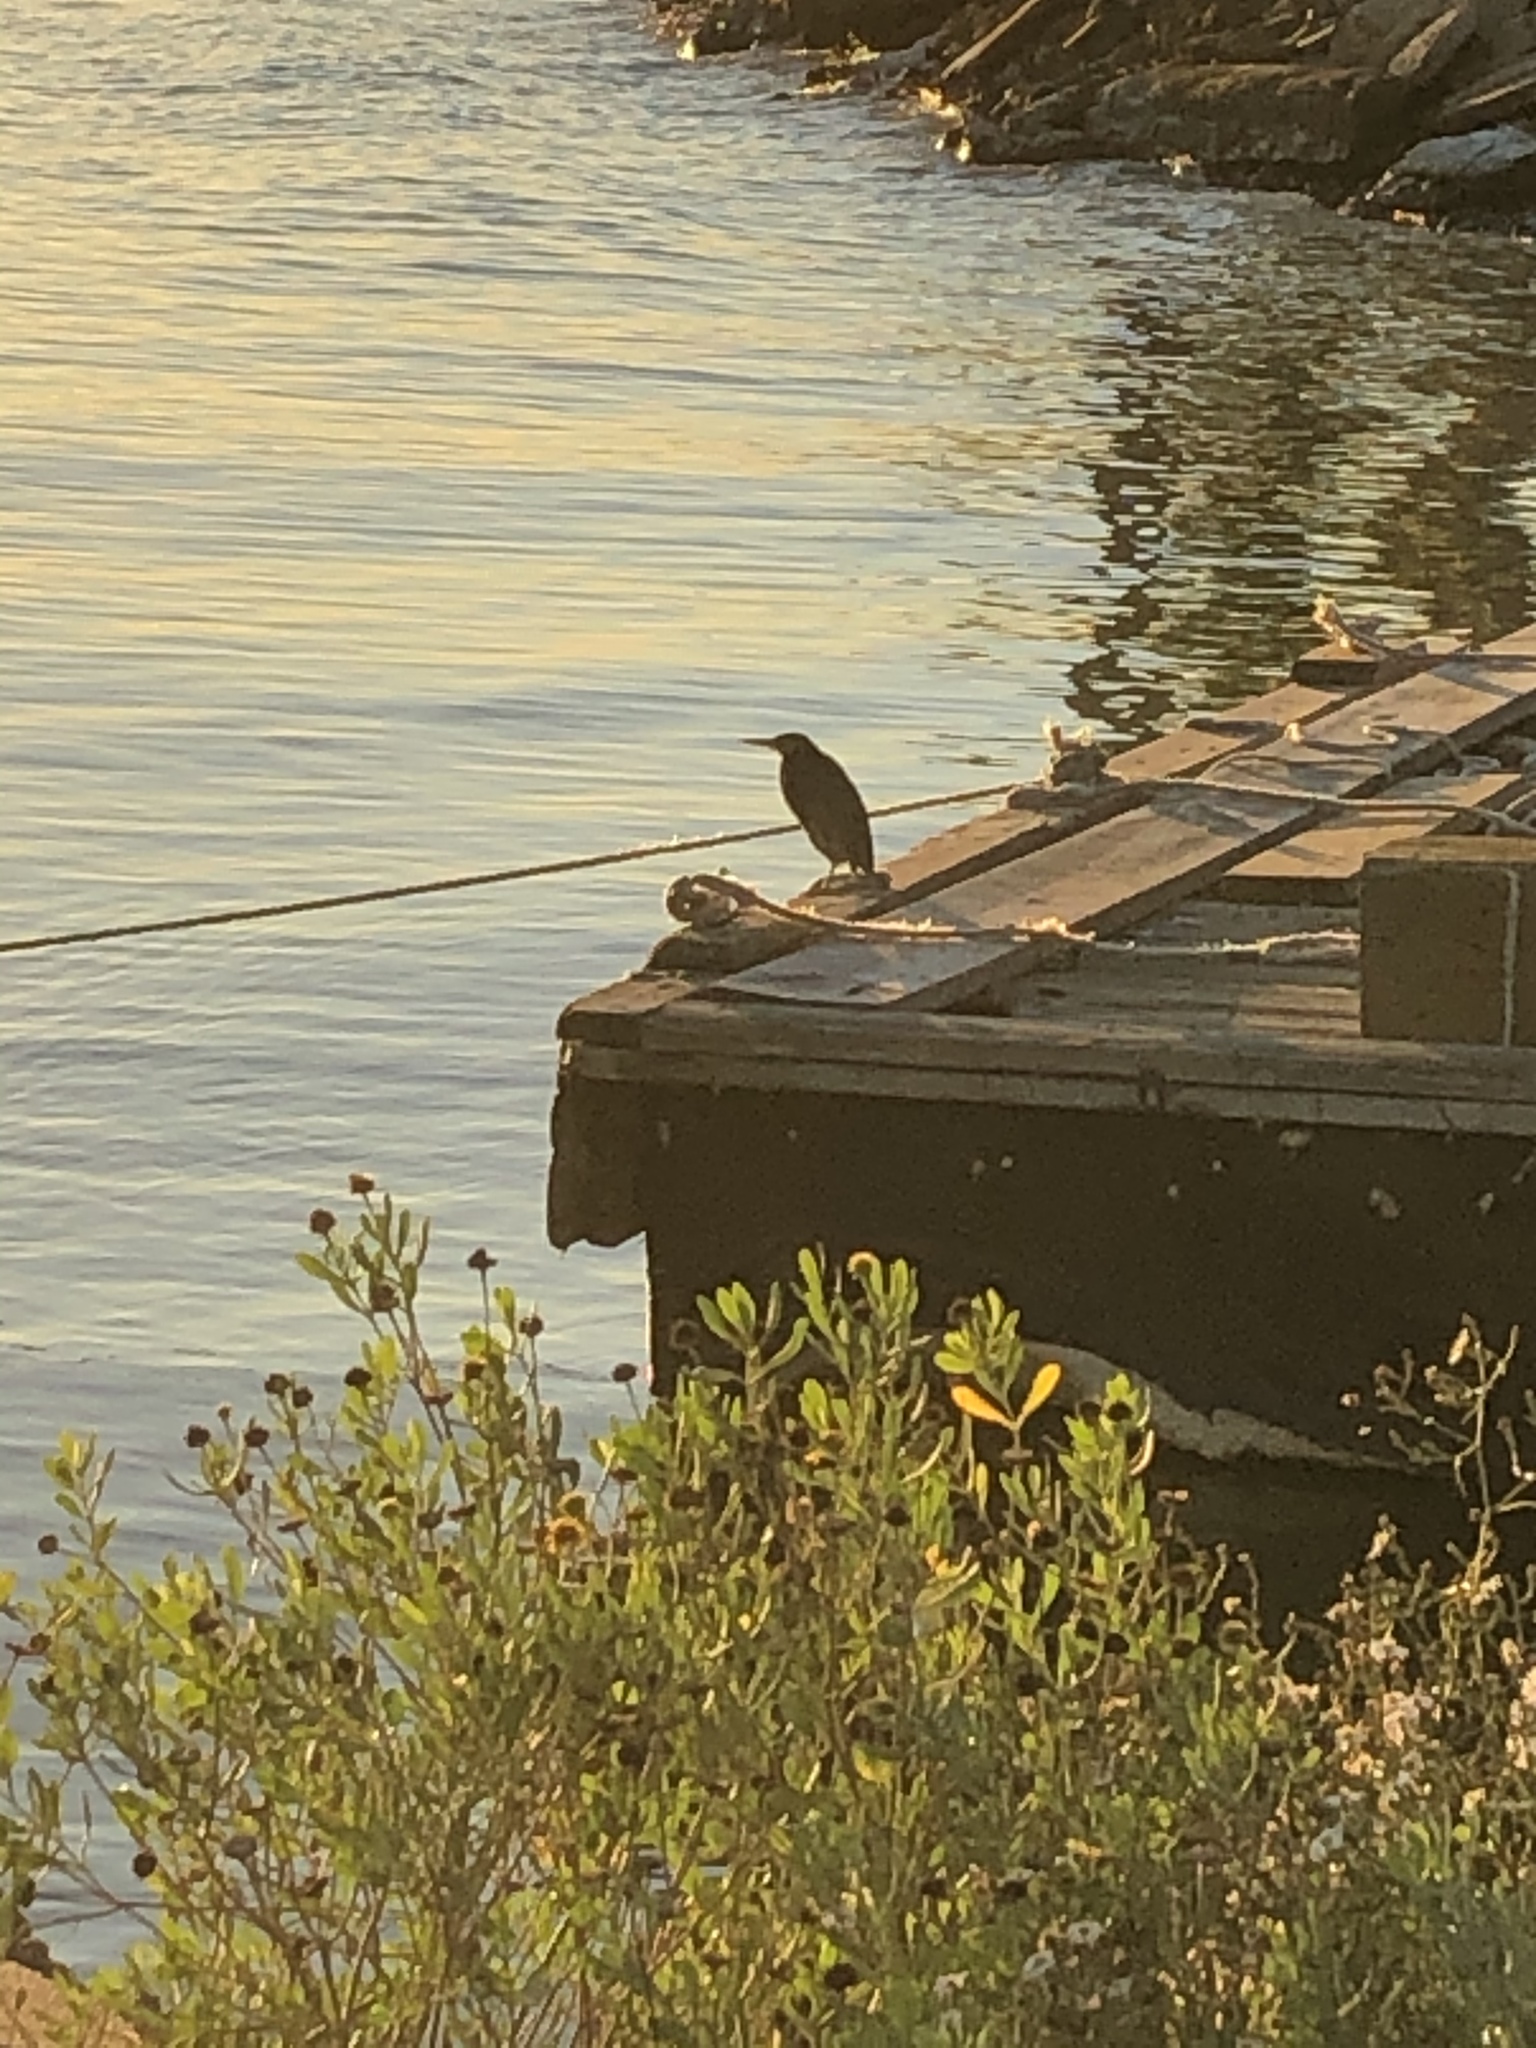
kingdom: Animalia
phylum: Chordata
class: Aves
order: Pelecaniformes
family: Ardeidae
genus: Butorides
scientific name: Butorides virescens
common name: Green heron
